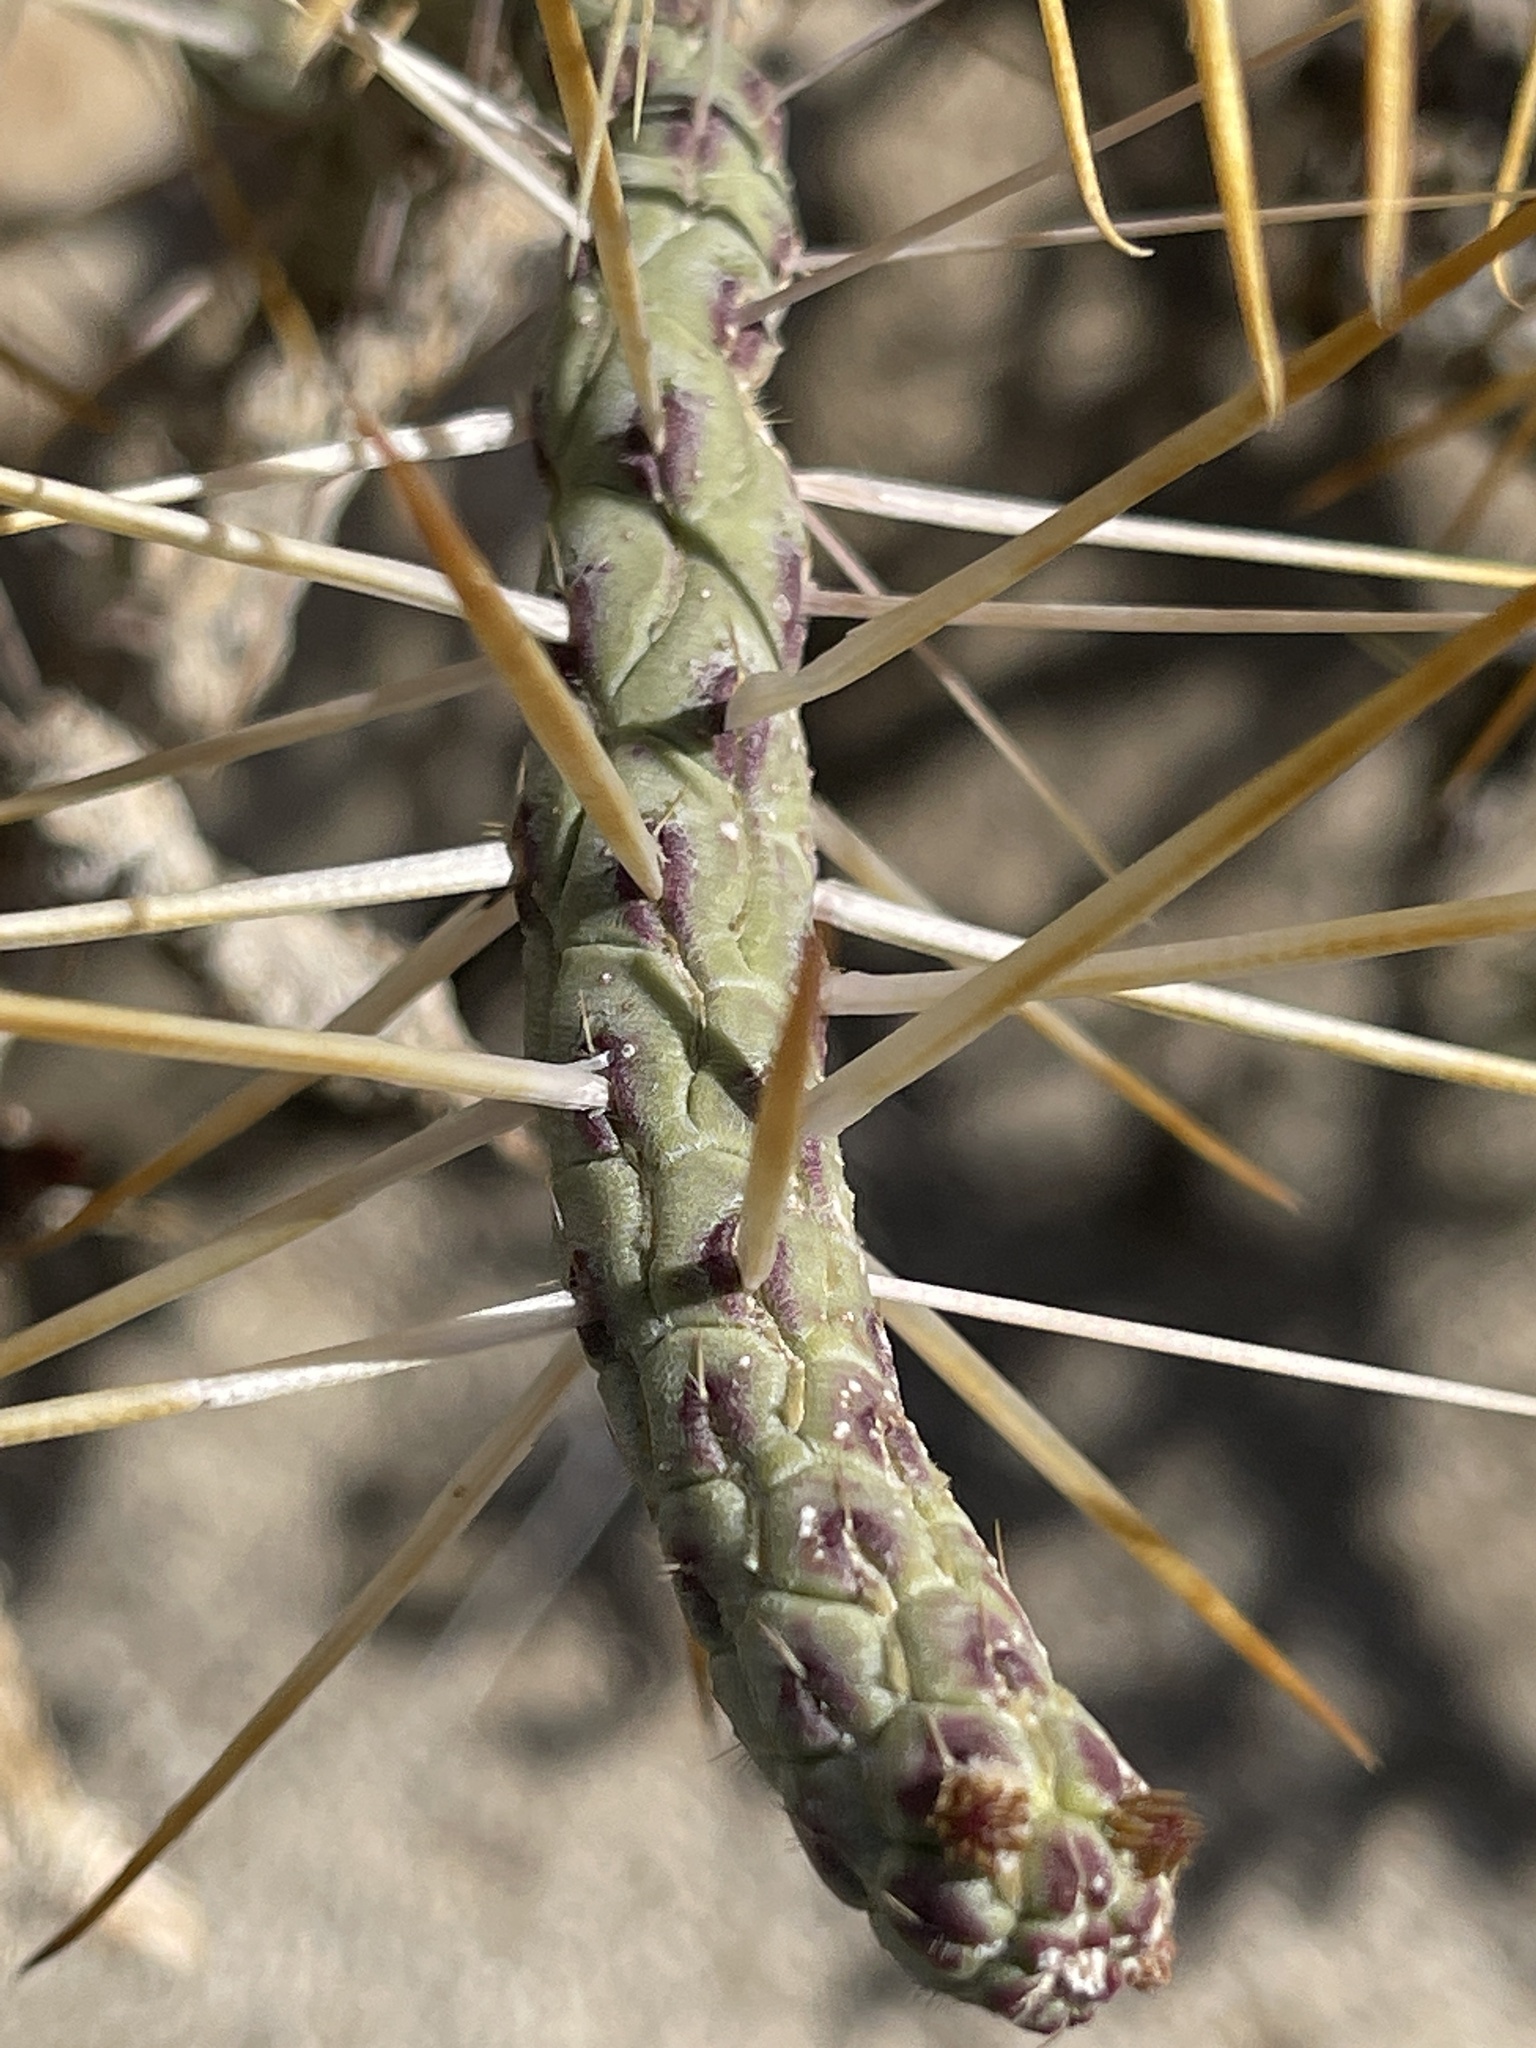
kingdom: Plantae
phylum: Tracheophyta
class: Magnoliopsida
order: Caryophyllales
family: Cactaceae
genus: Cylindropuntia
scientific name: Cylindropuntia ramosissima
